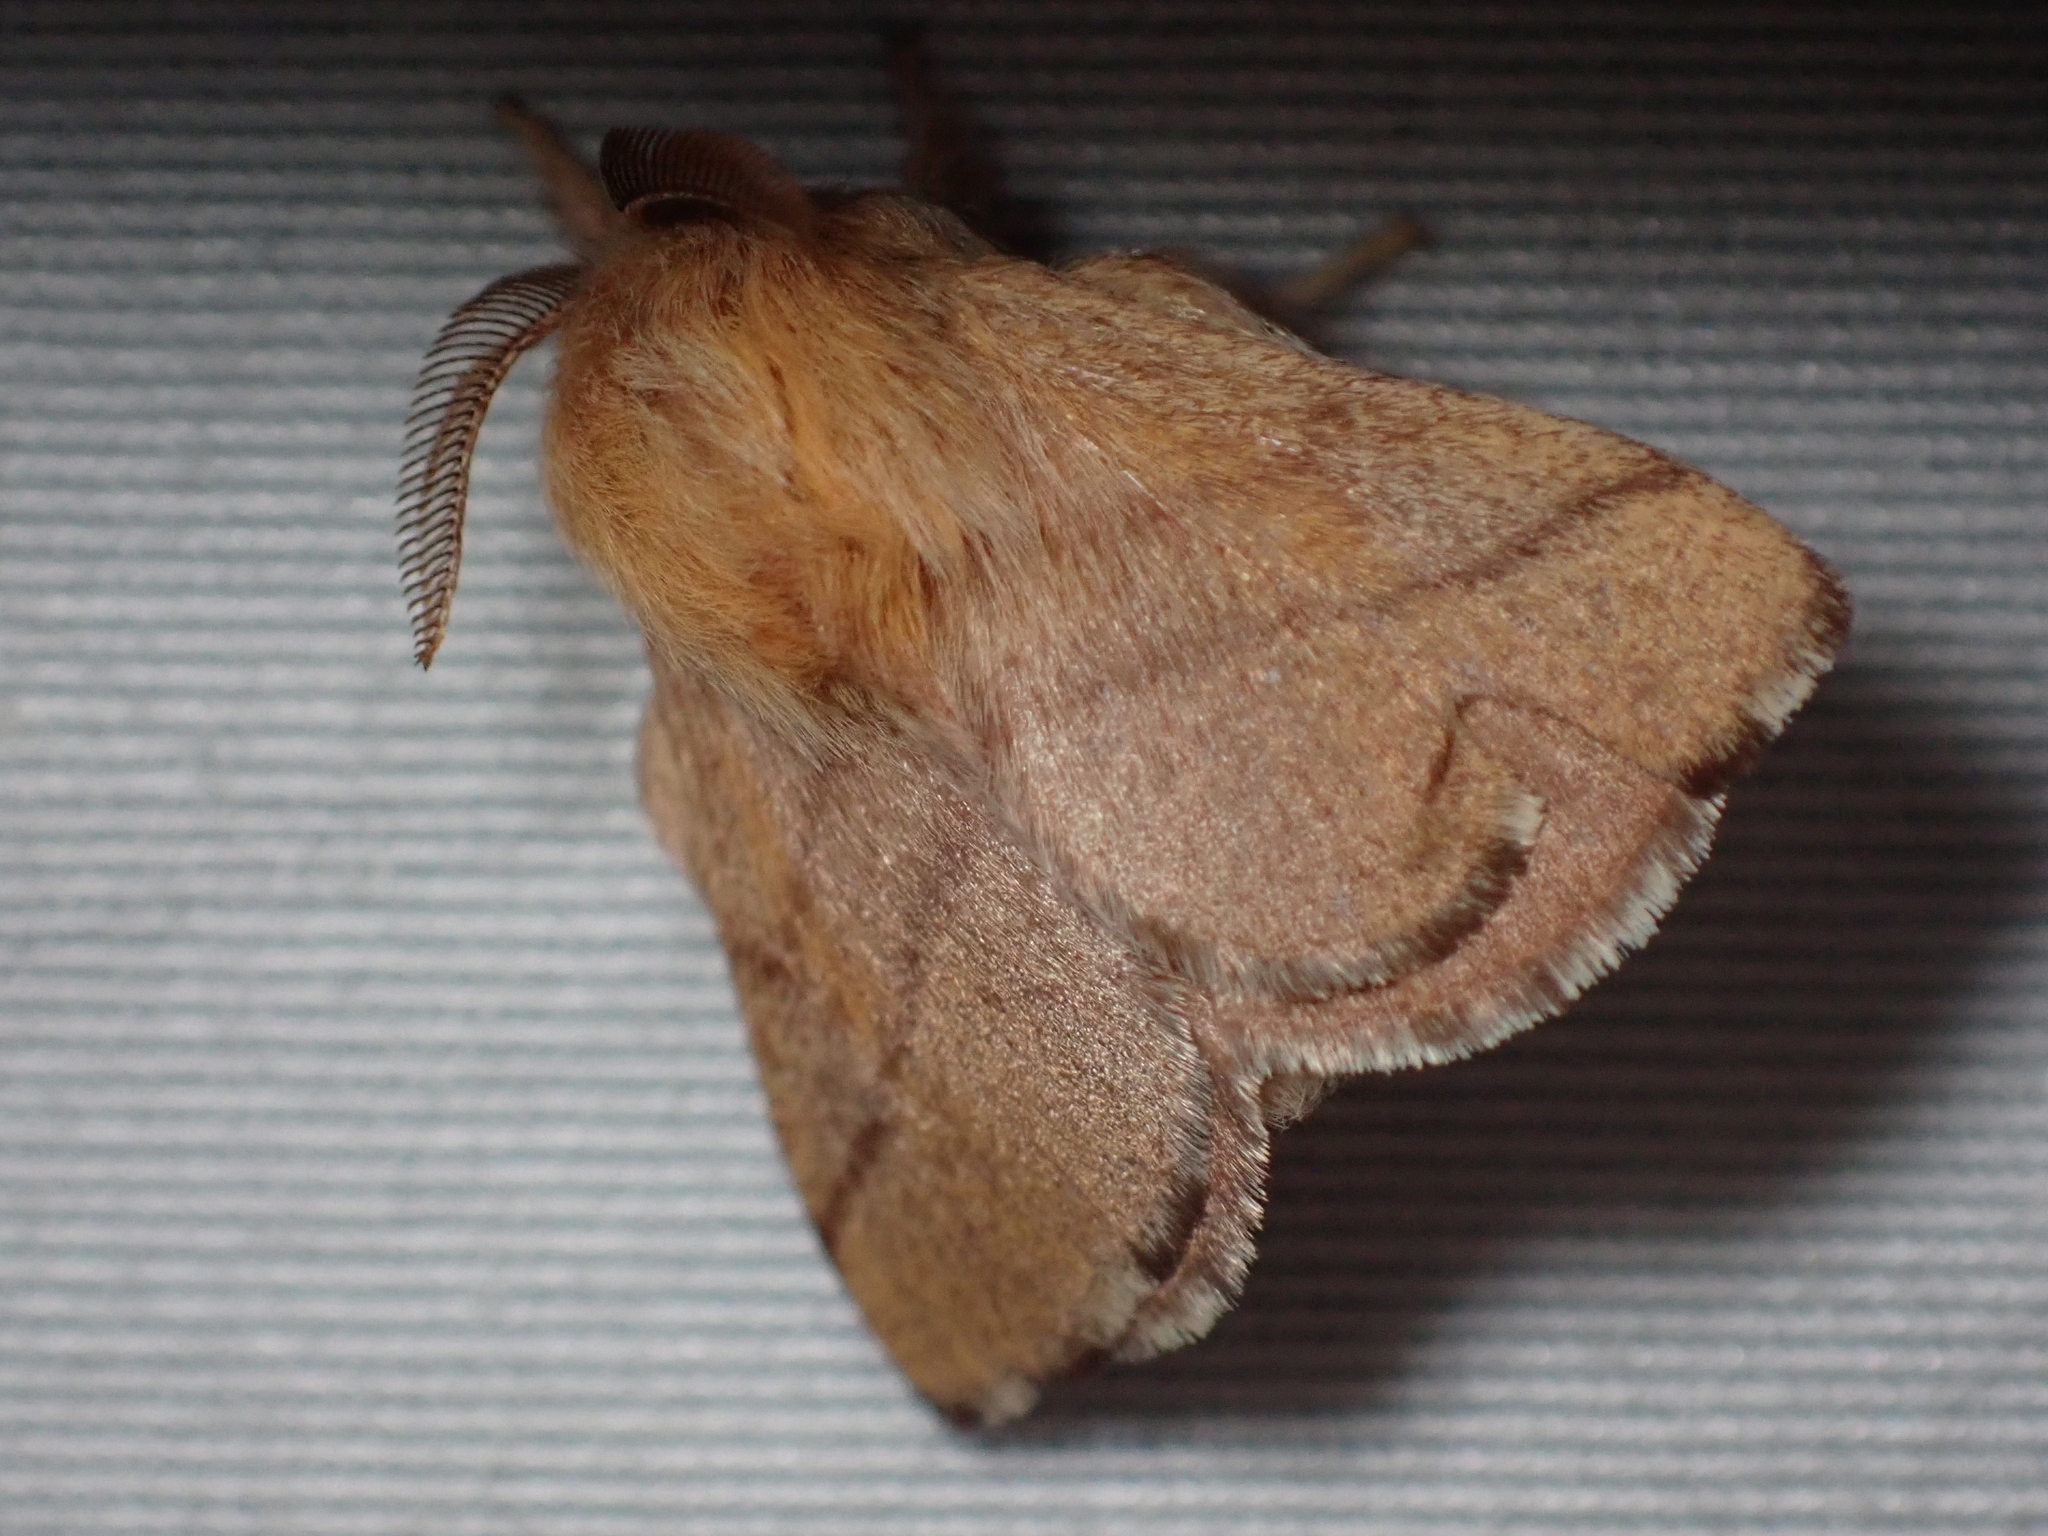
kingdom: Animalia
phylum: Arthropoda
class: Insecta
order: Lepidoptera
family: Lasiocampidae
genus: Malacosoma
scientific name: Malacosoma disstria
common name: Forest tent caterpillar
